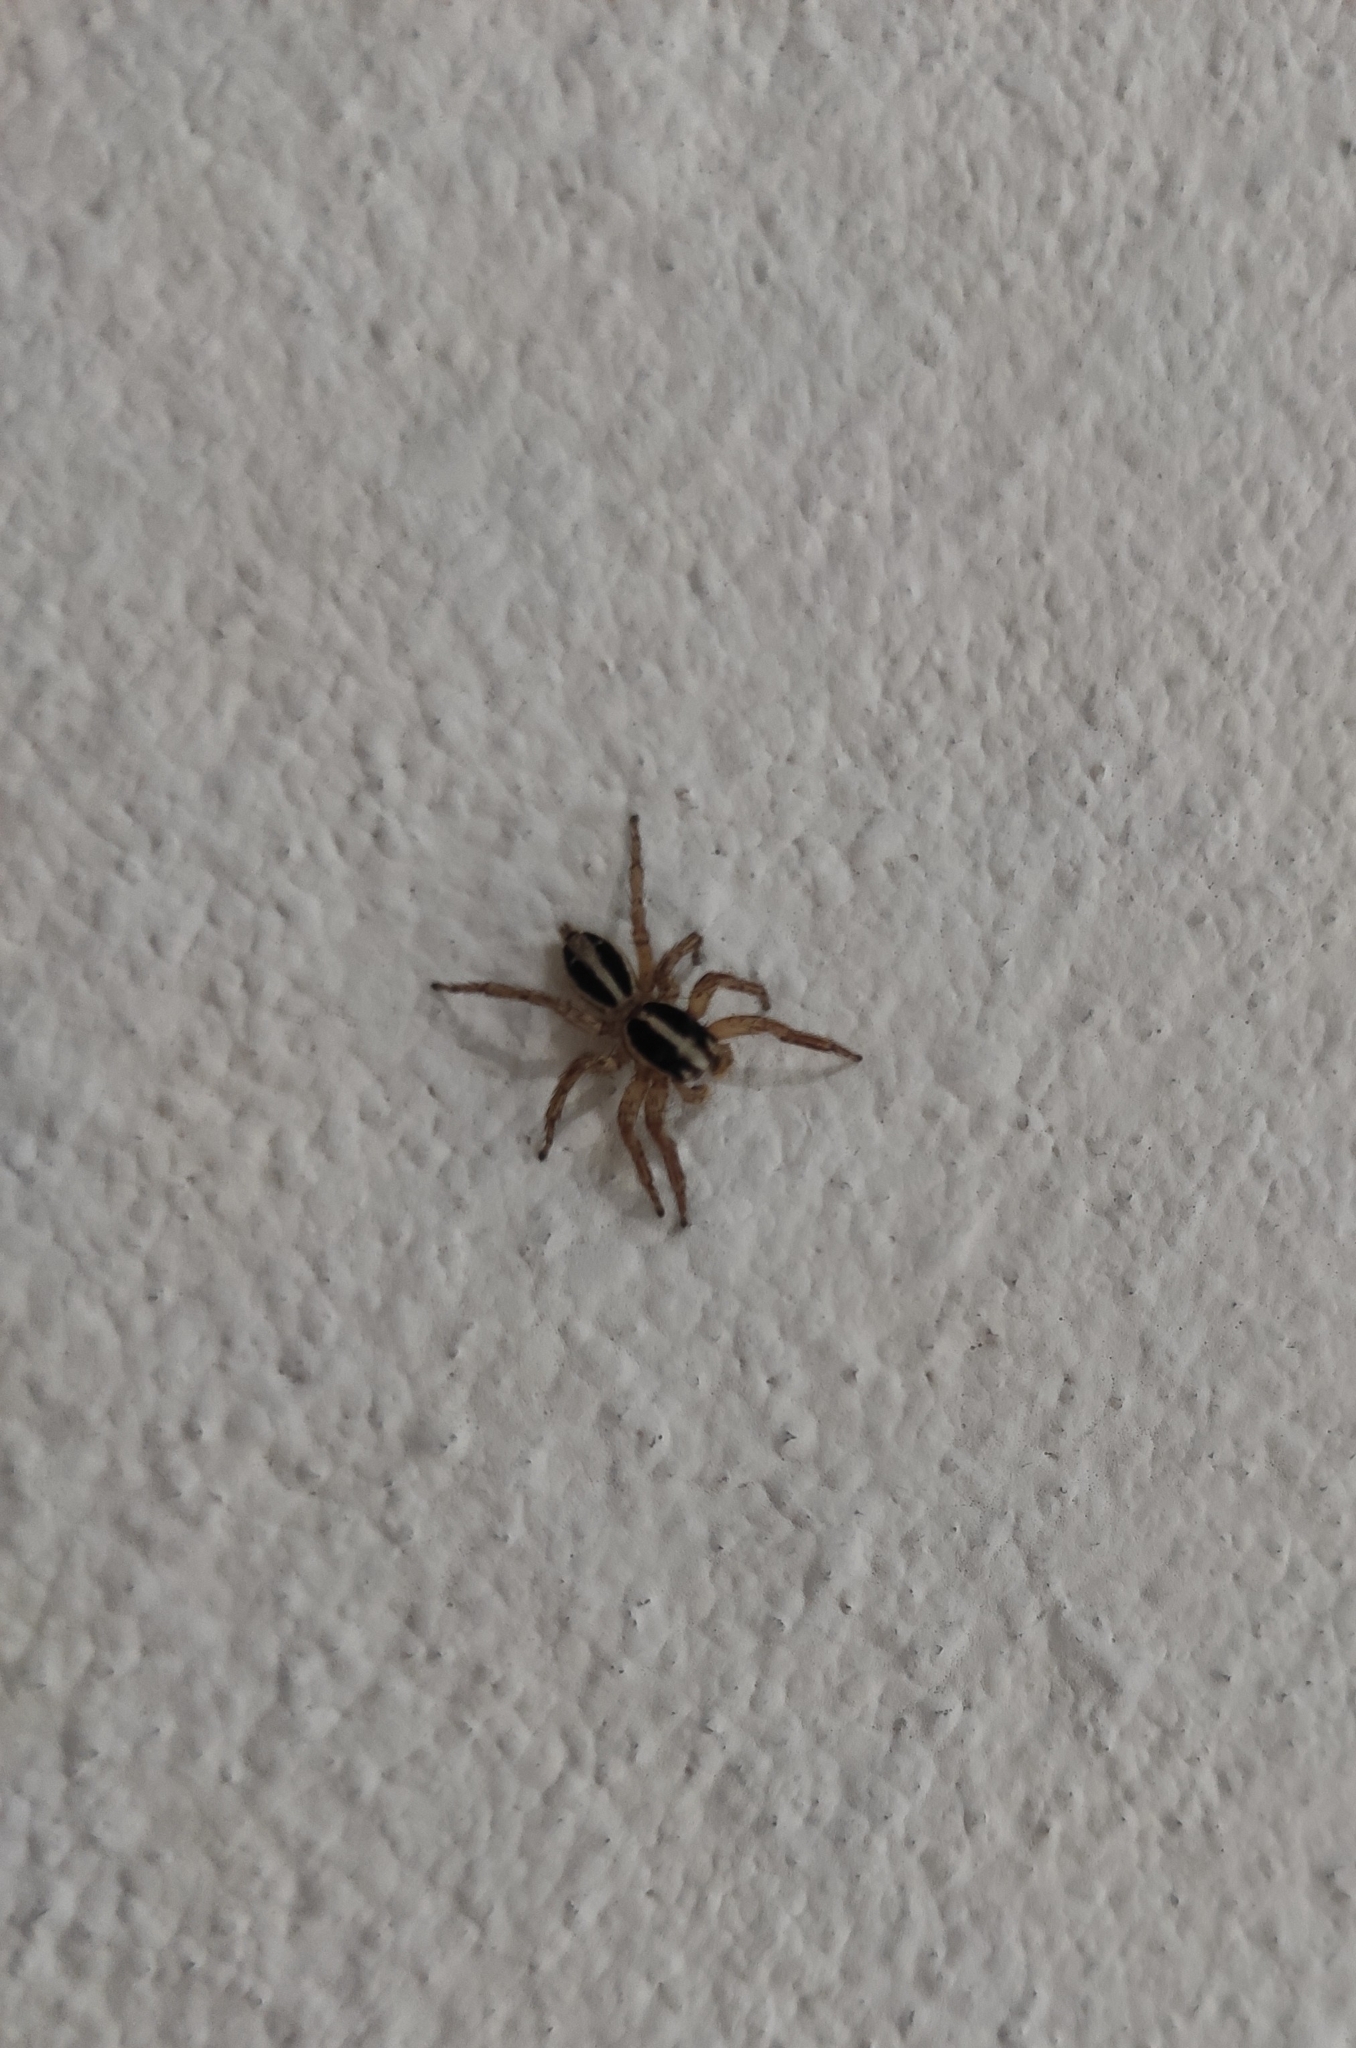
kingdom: Animalia
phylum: Arthropoda
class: Arachnida
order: Araneae
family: Salticidae
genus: Plexippus
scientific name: Plexippus paykulli
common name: Pantropical jumper
